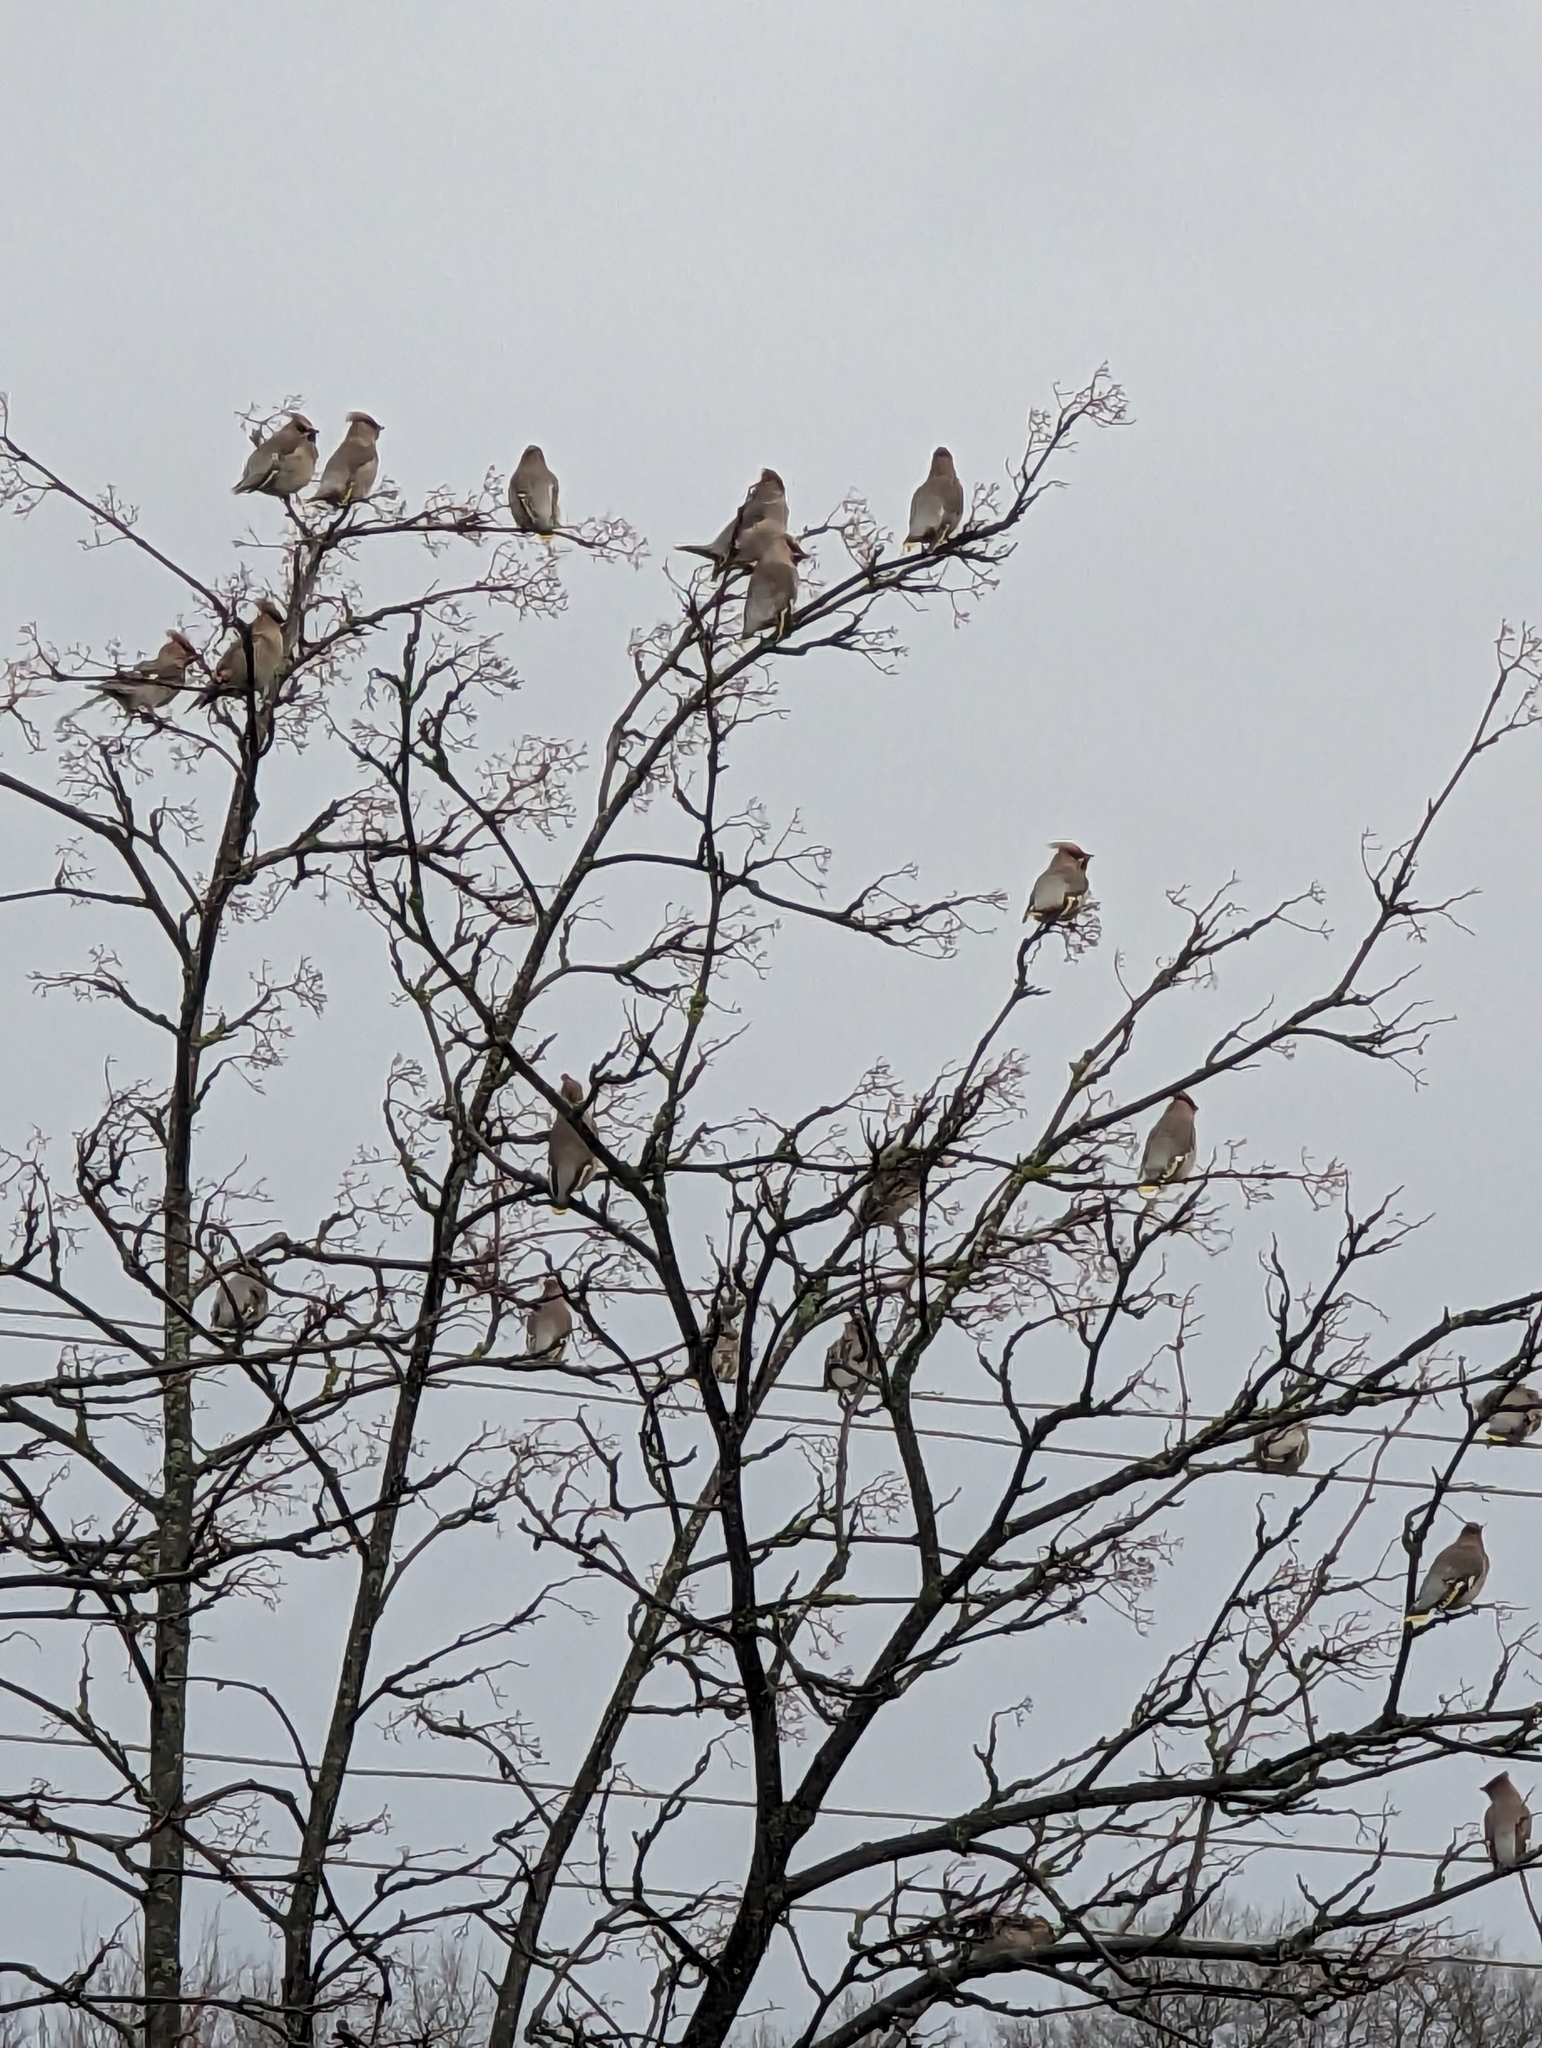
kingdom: Animalia
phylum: Chordata
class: Aves
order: Passeriformes
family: Bombycillidae
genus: Bombycilla
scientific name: Bombycilla garrulus
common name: Bohemian waxwing
